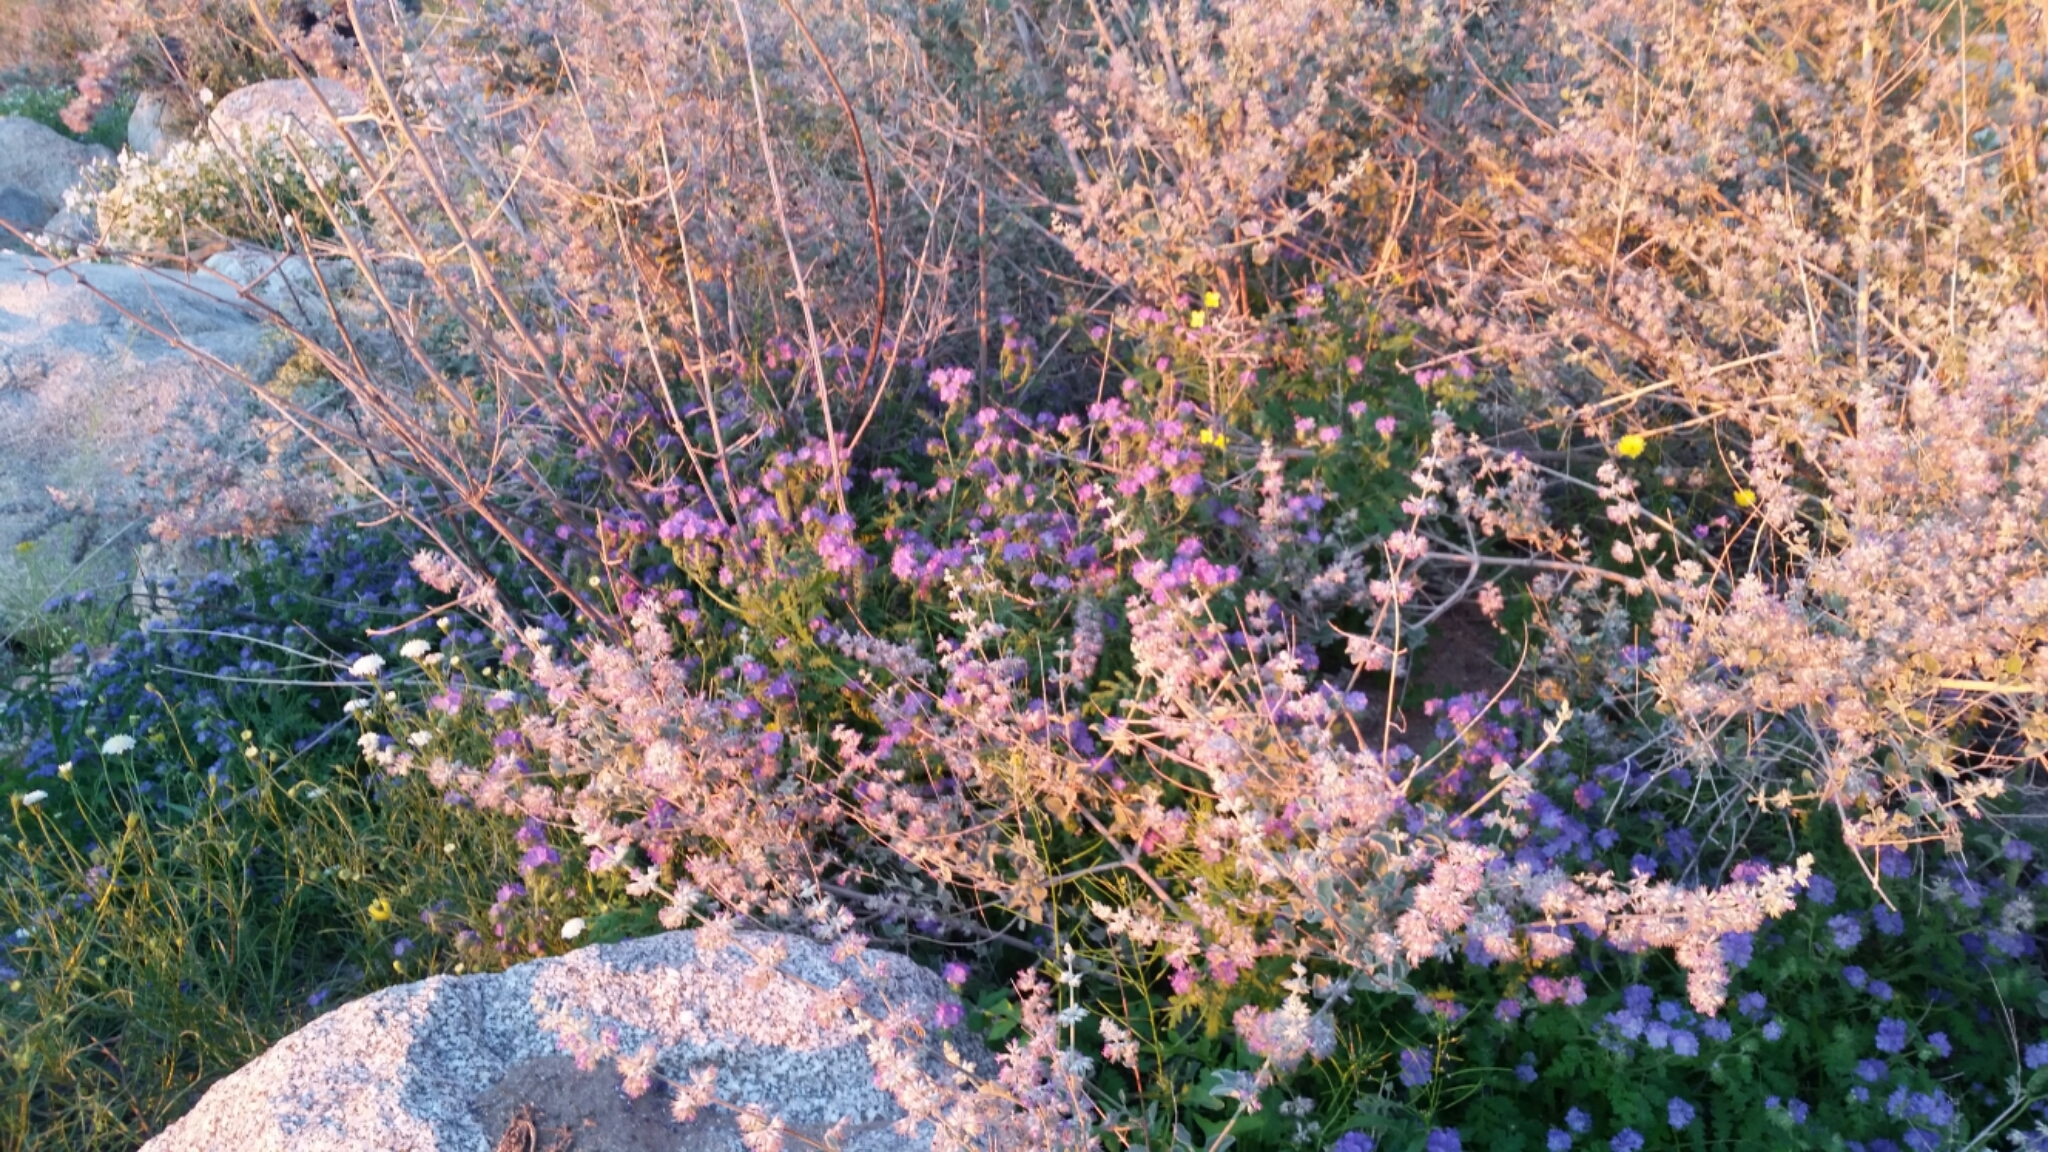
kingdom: Plantae
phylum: Tracheophyta
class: Magnoliopsida
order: Lamiales
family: Lamiaceae
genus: Condea
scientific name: Condea emoryi
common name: Chia
